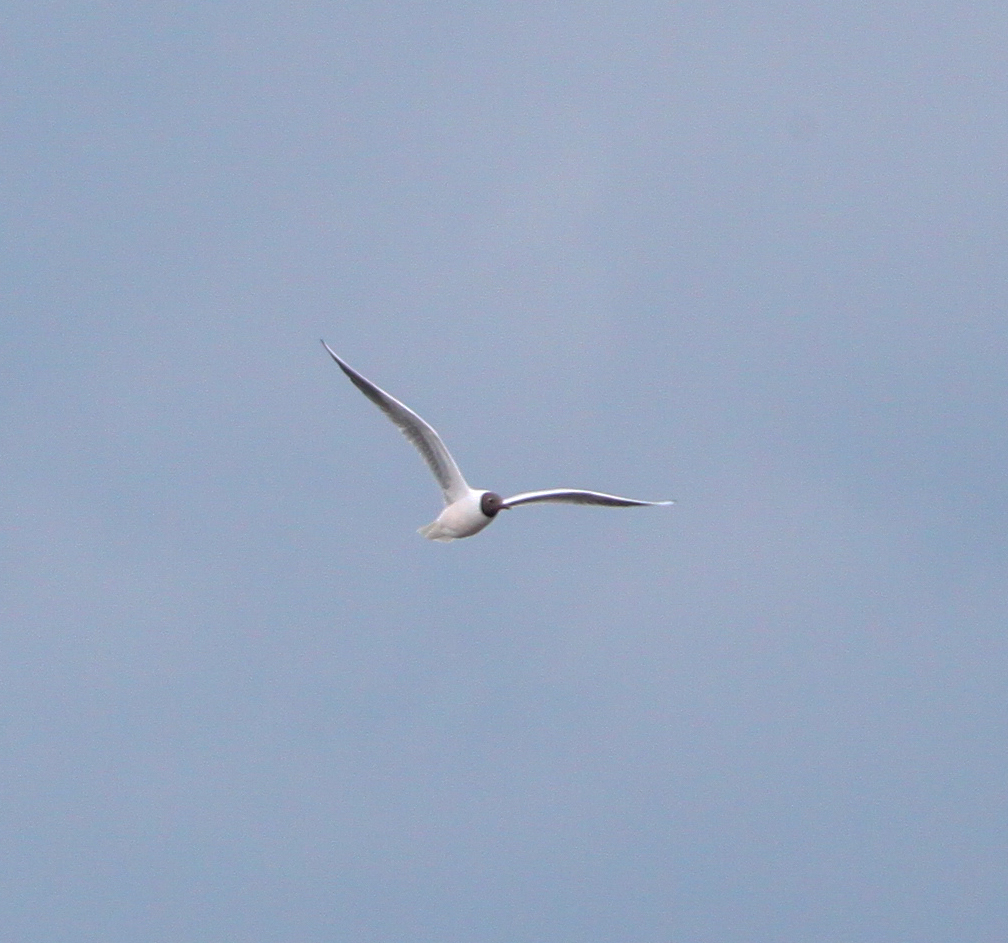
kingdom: Animalia
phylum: Chordata
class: Aves
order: Charadriiformes
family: Laridae
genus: Chroicocephalus
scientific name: Chroicocephalus ridibundus
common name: Black-headed gull
